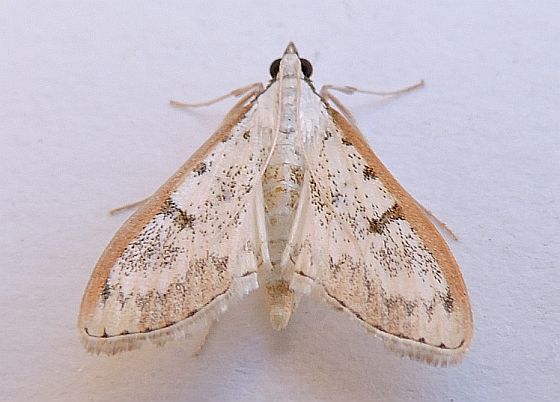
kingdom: Animalia
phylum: Arthropoda
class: Insecta
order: Lepidoptera
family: Crambidae
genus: Palpita
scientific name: Palpita gracilalis
